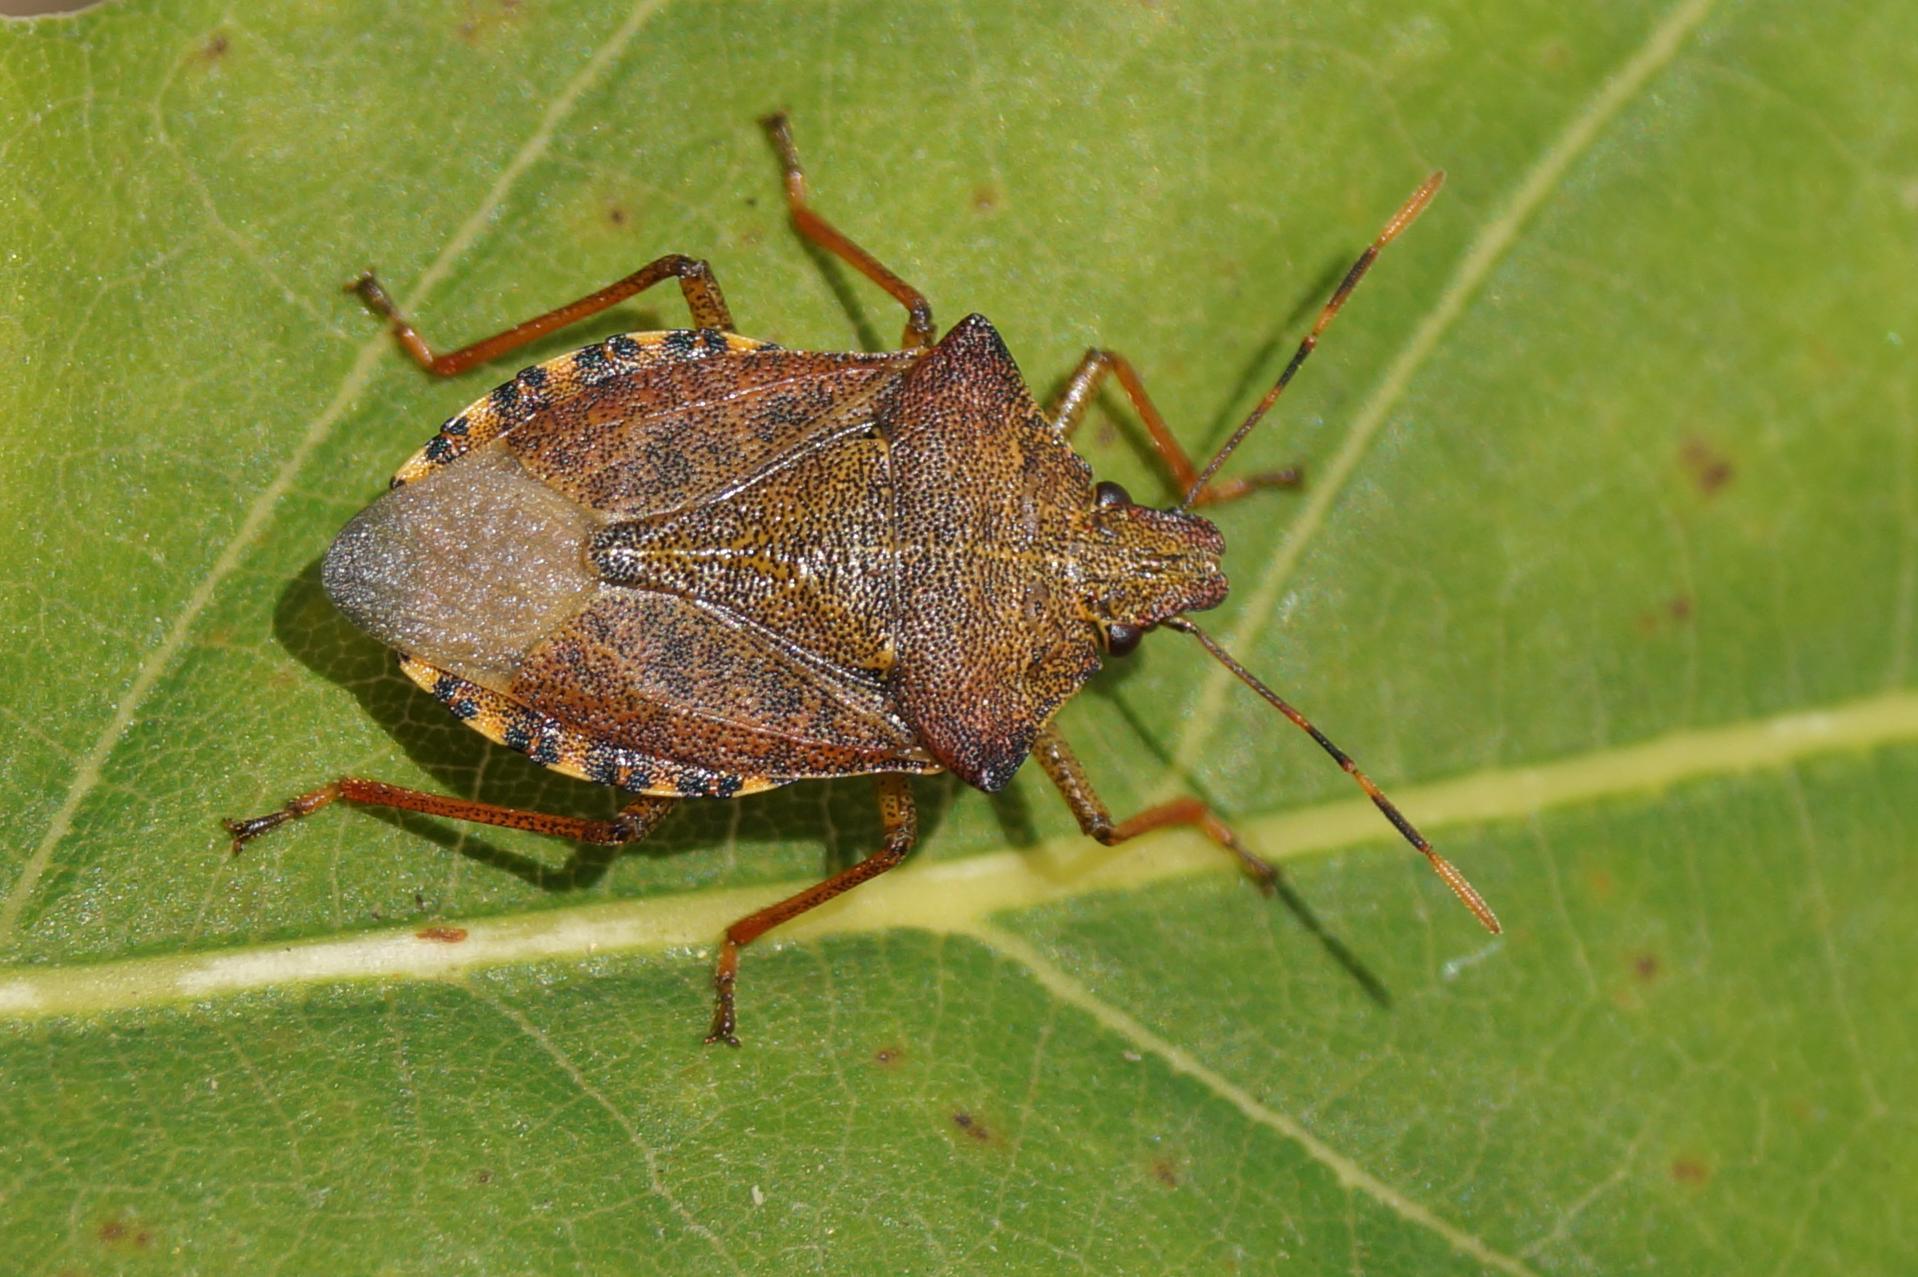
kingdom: Animalia
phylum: Arthropoda
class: Insecta
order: Hemiptera
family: Pentatomidae
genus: Arma
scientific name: Arma custos
